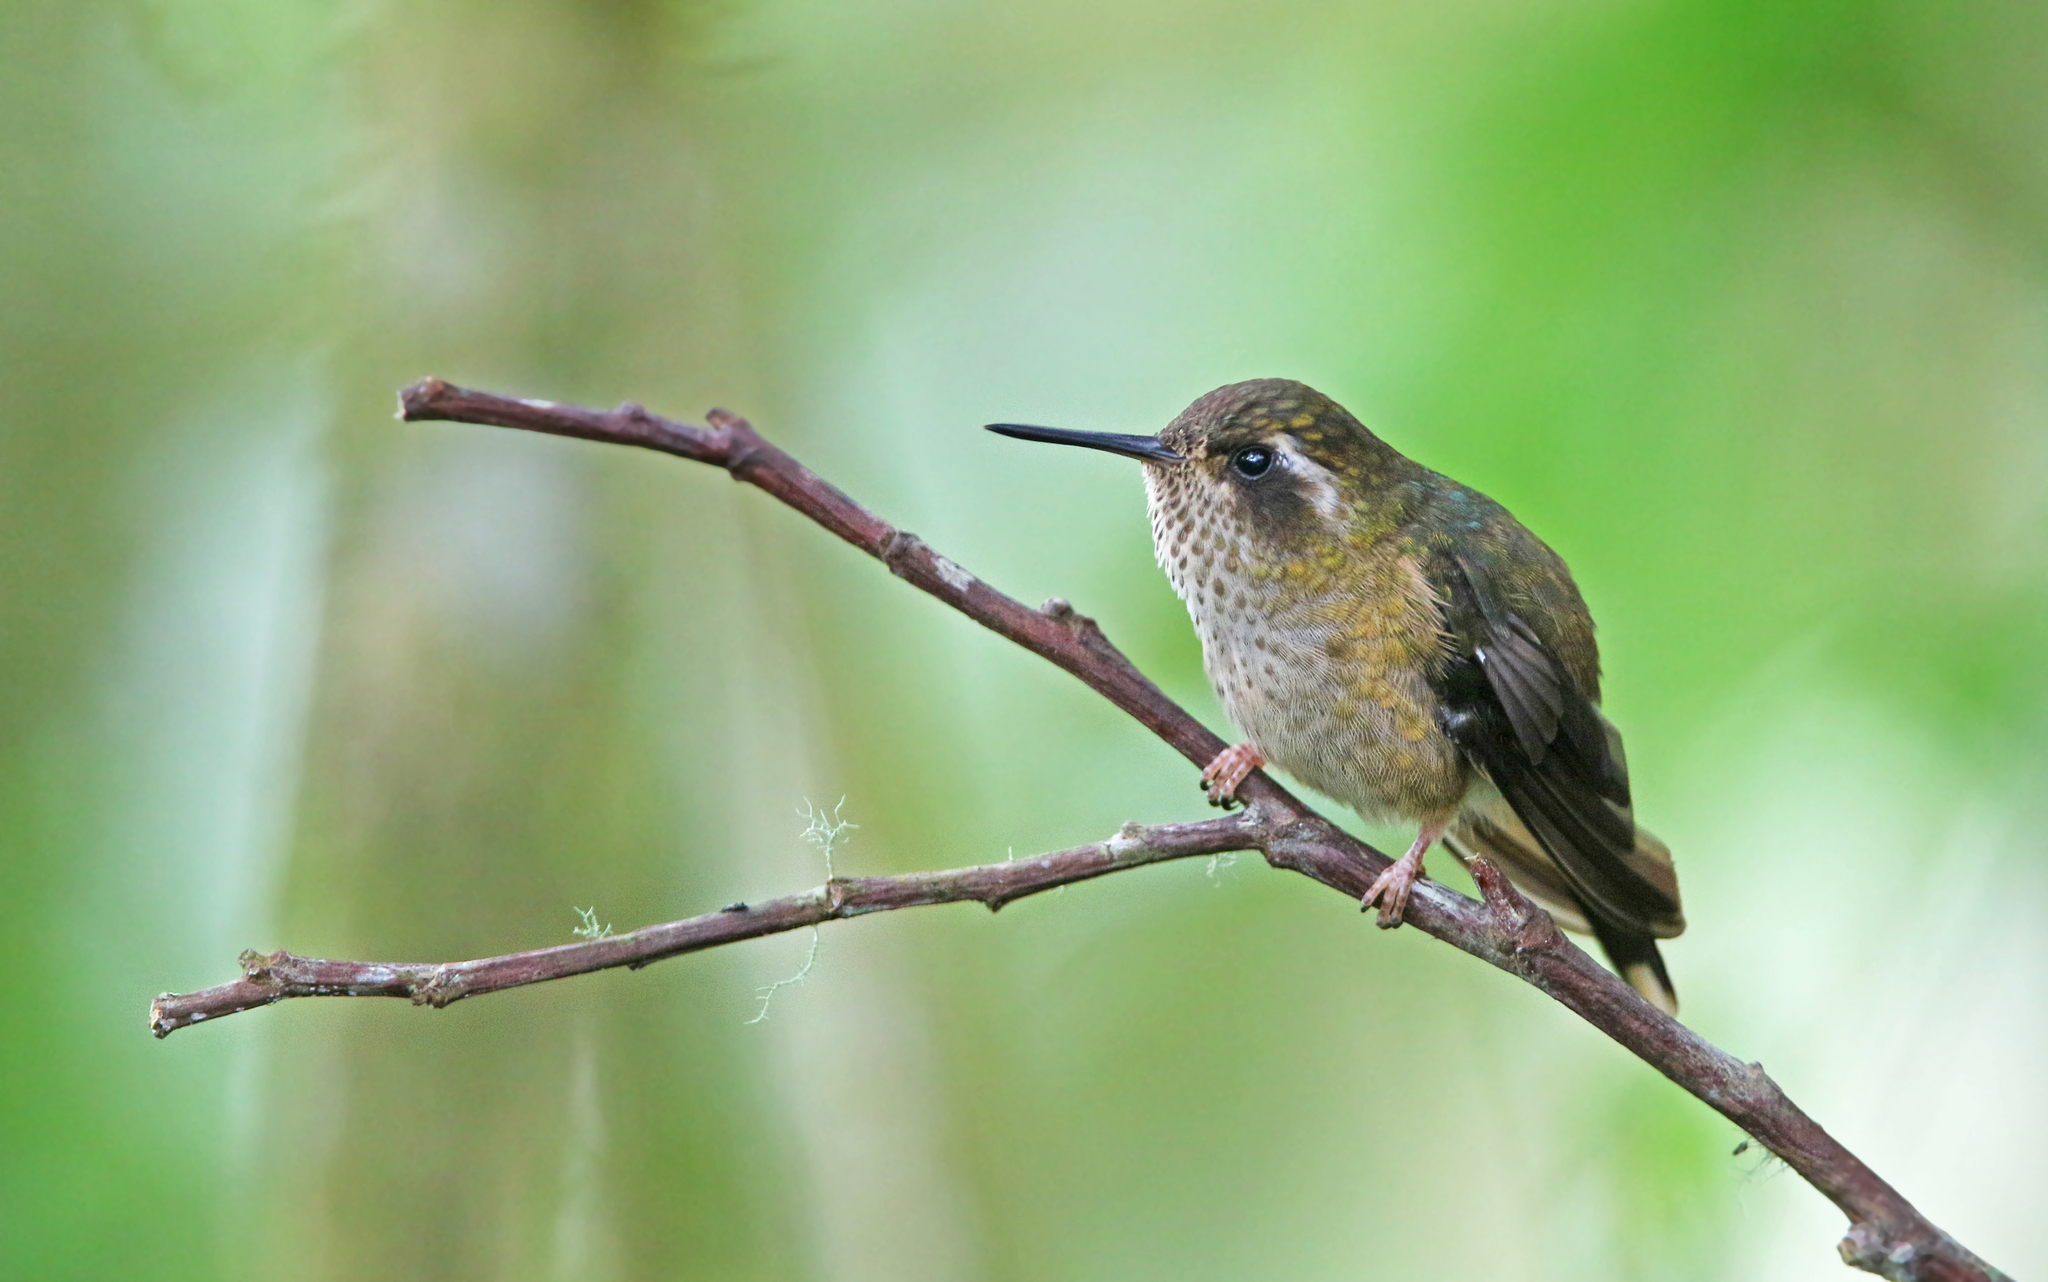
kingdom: Animalia
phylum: Chordata
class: Aves
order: Apodiformes
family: Trochilidae
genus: Adelomyia
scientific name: Adelomyia melanogenys
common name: Speckled hummingbird
